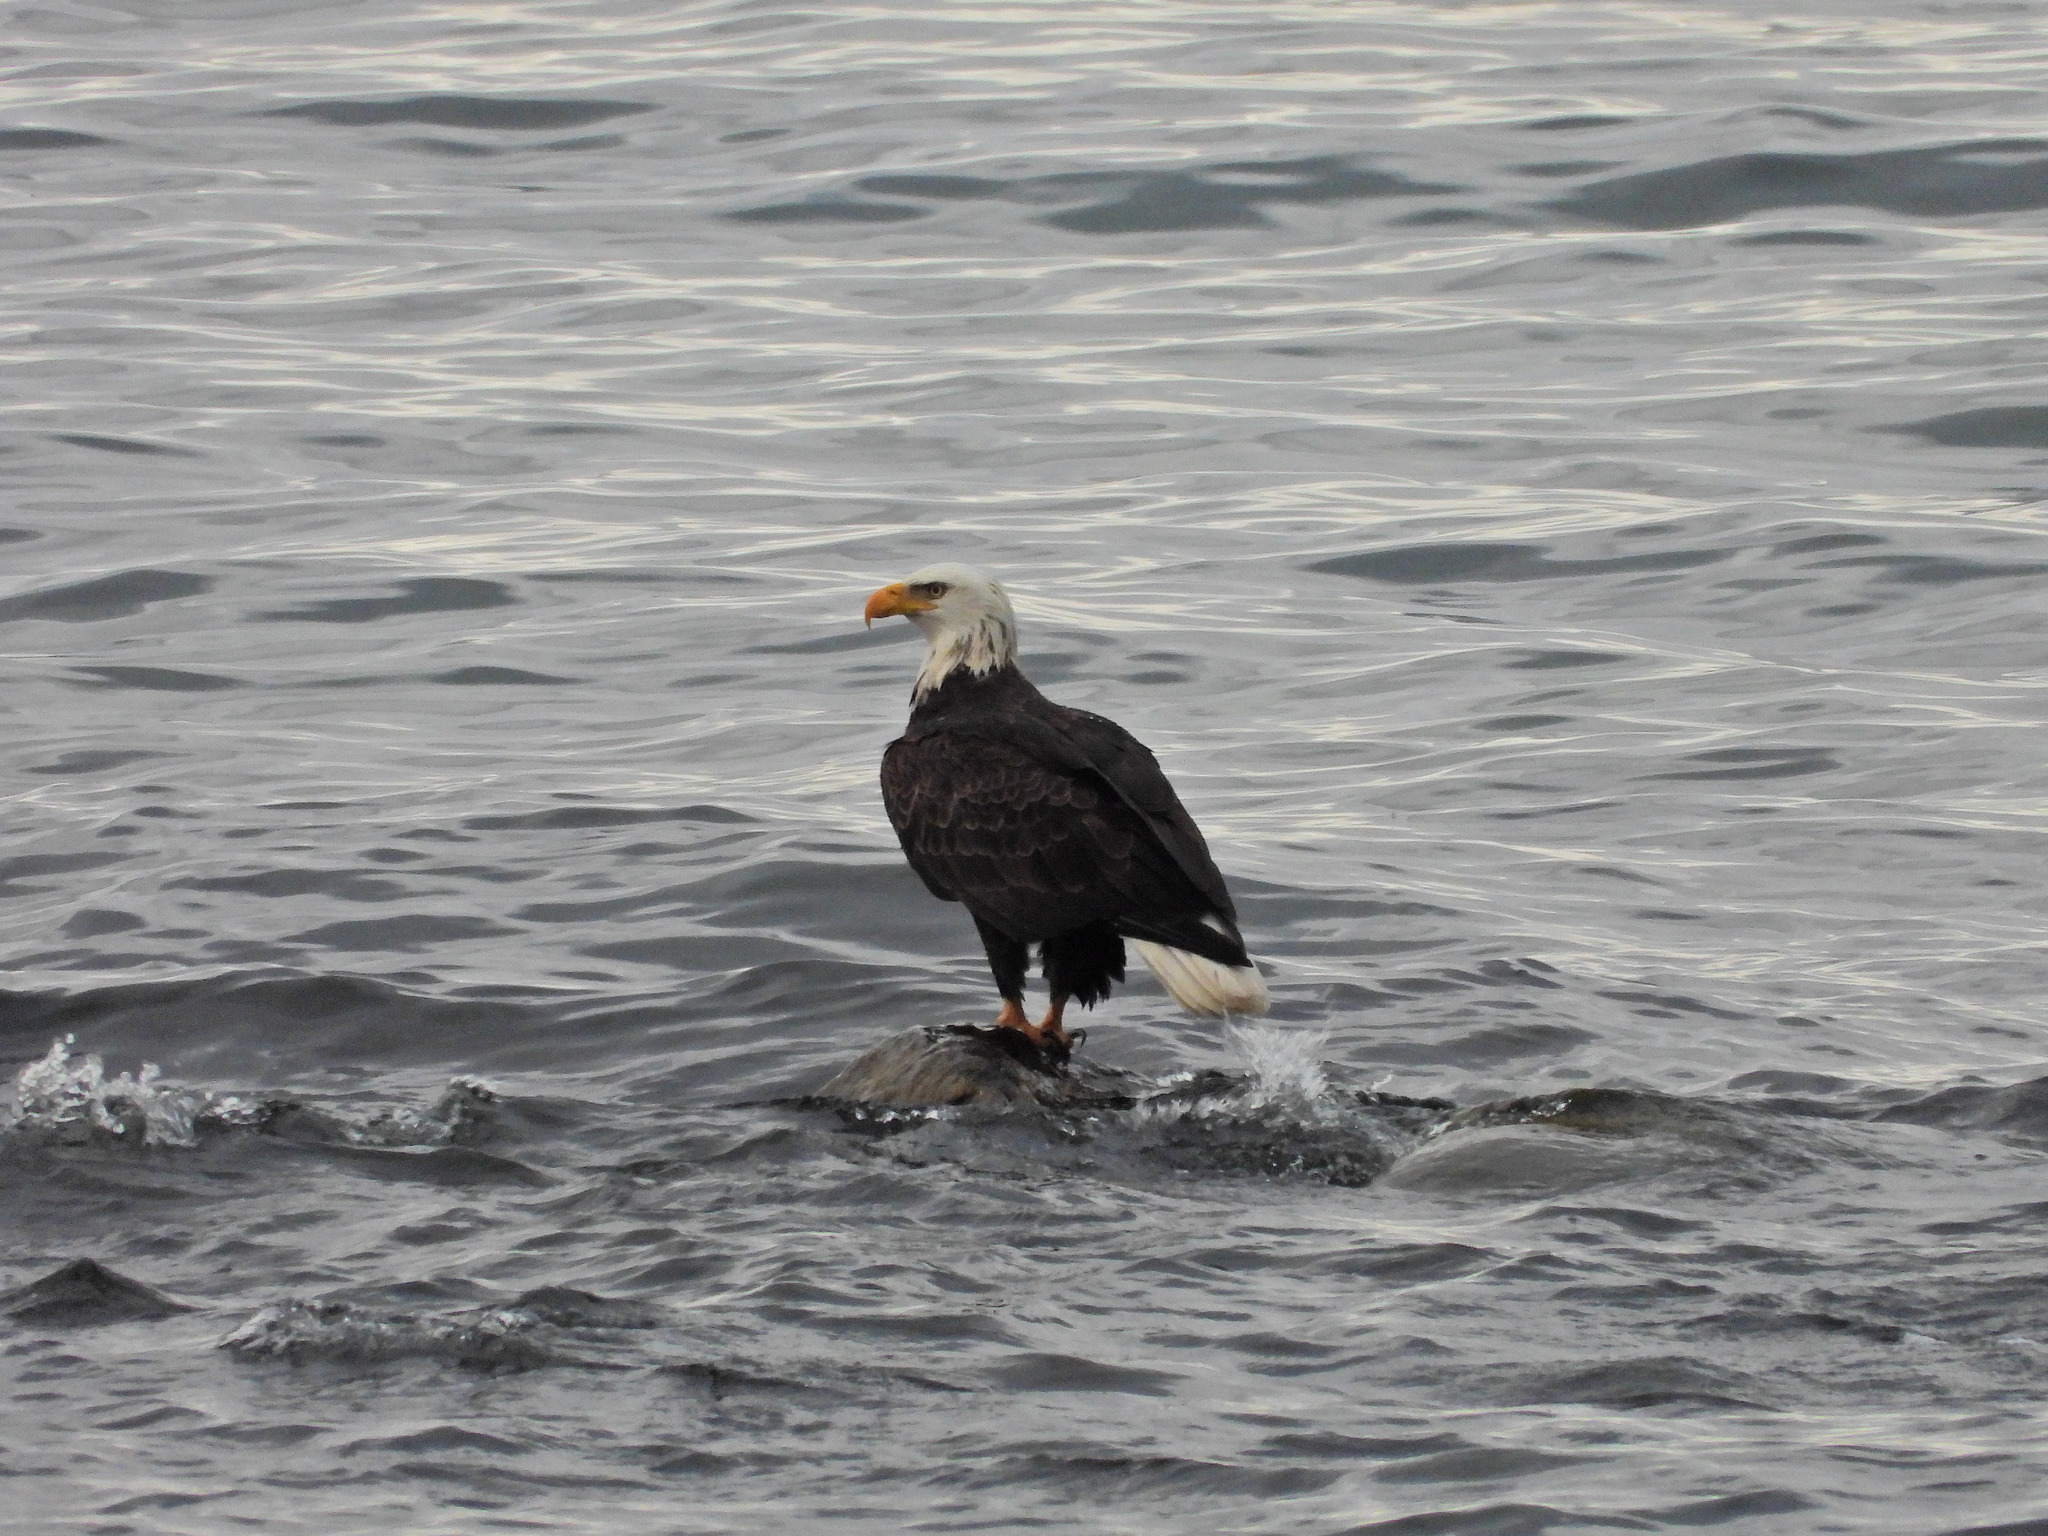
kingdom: Animalia
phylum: Chordata
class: Aves
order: Accipitriformes
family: Accipitridae
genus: Haliaeetus
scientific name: Haliaeetus leucocephalus
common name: Bald eagle
